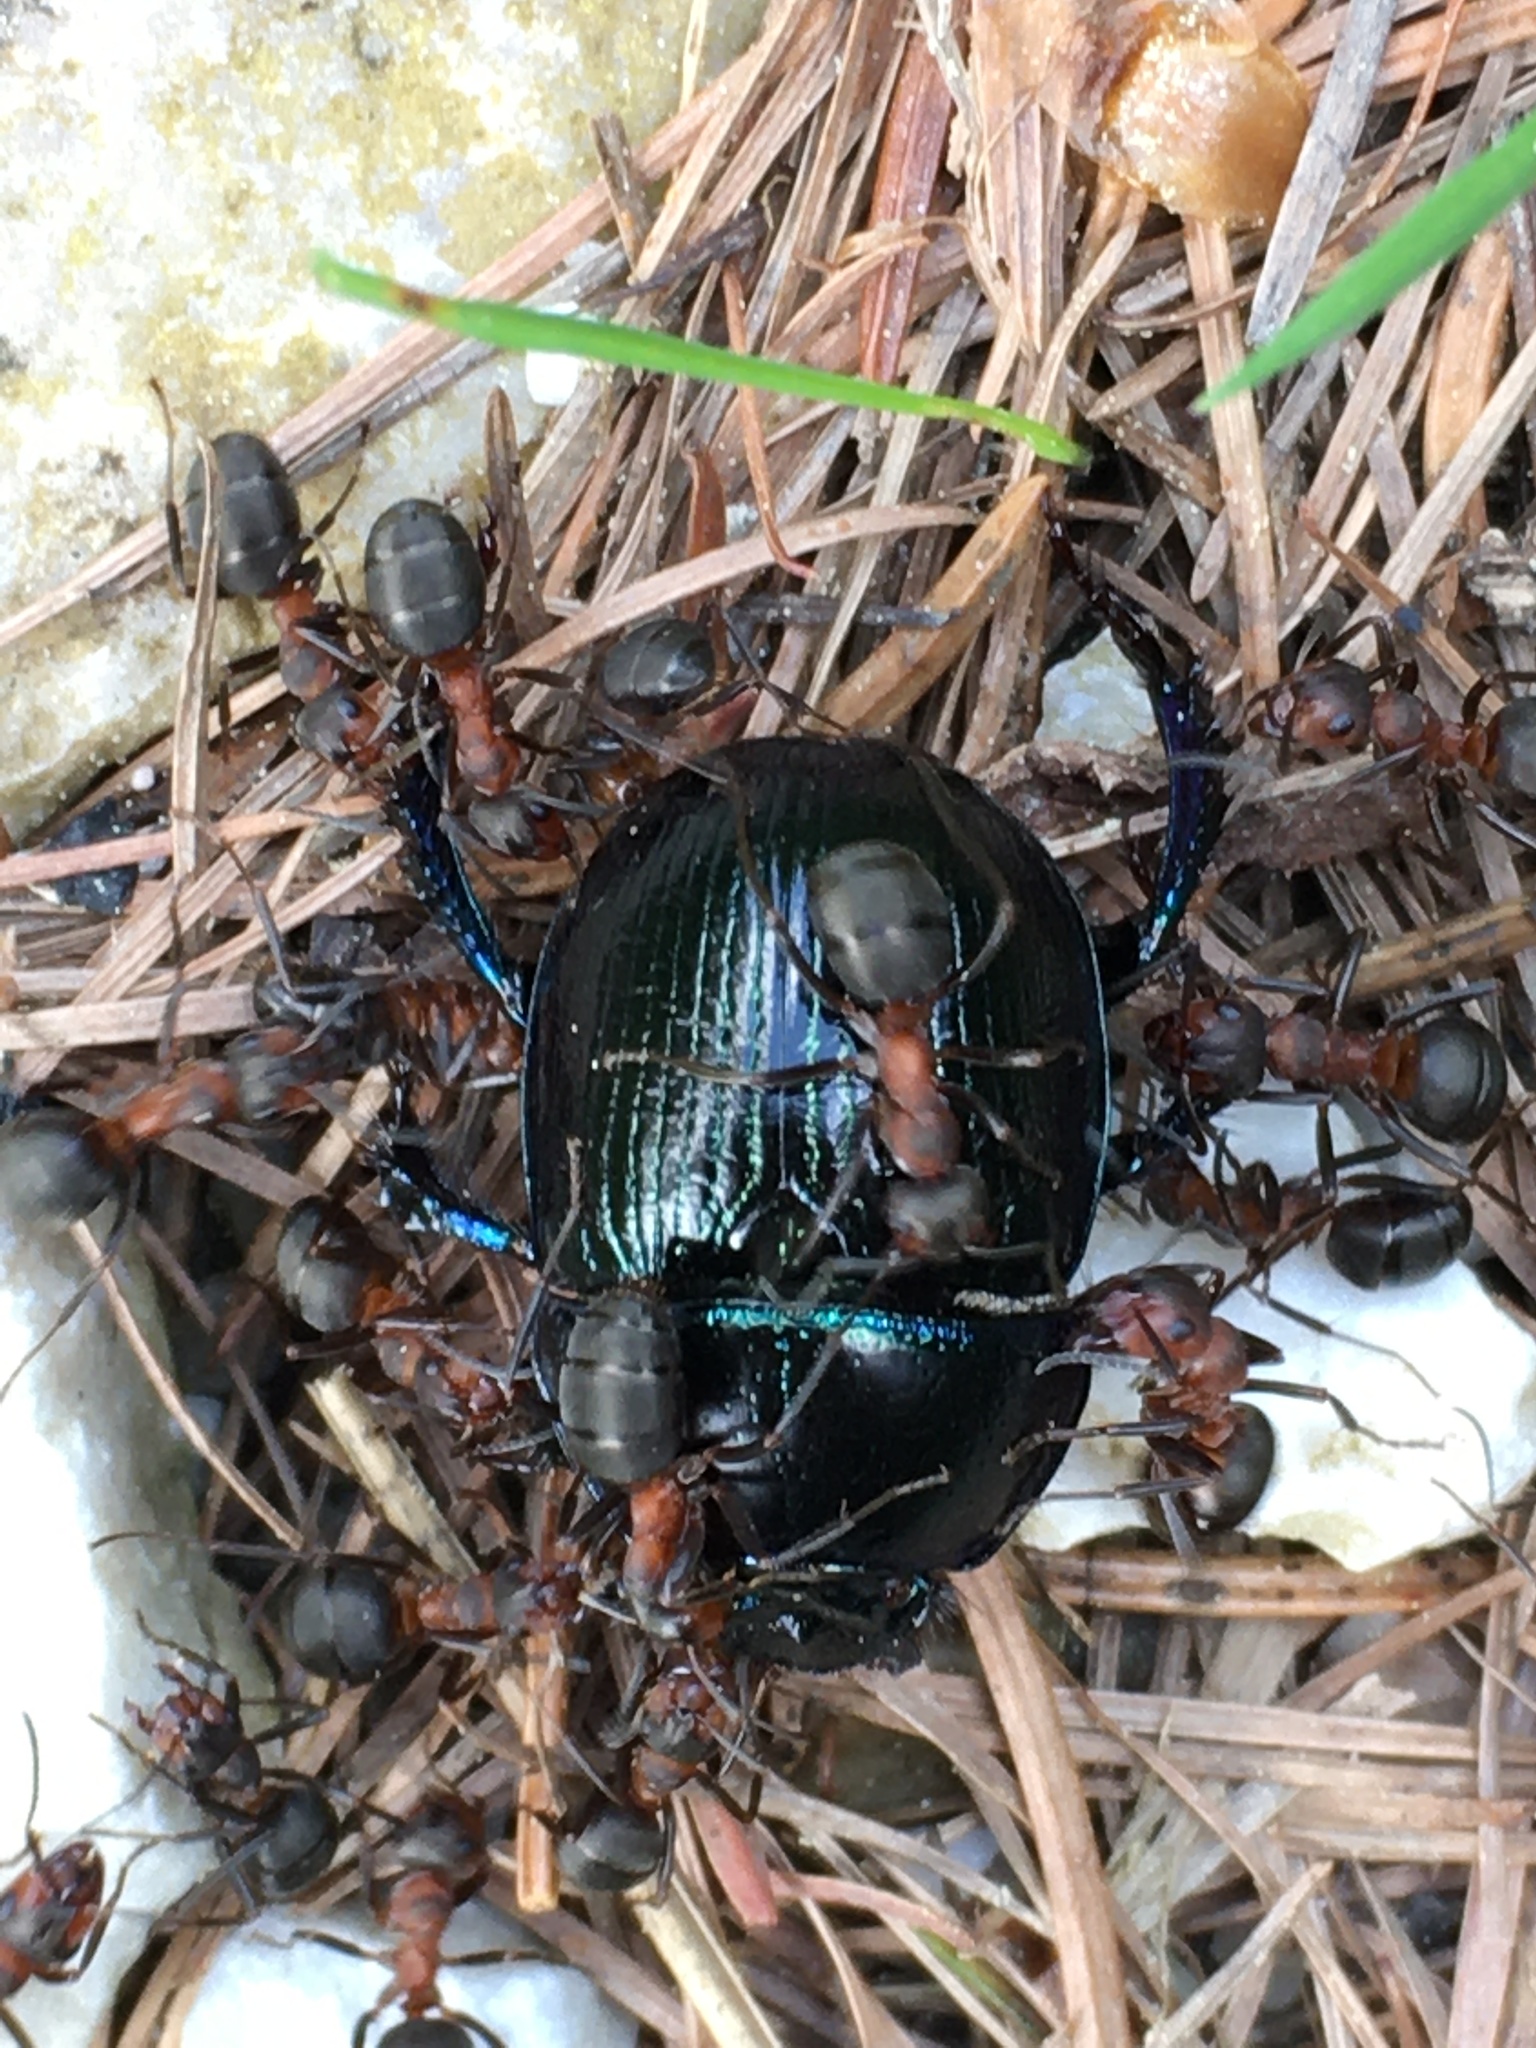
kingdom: Animalia
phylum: Arthropoda
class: Insecta
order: Coleoptera
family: Geotrupidae
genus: Anoplotrupes
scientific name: Anoplotrupes stercorosus
